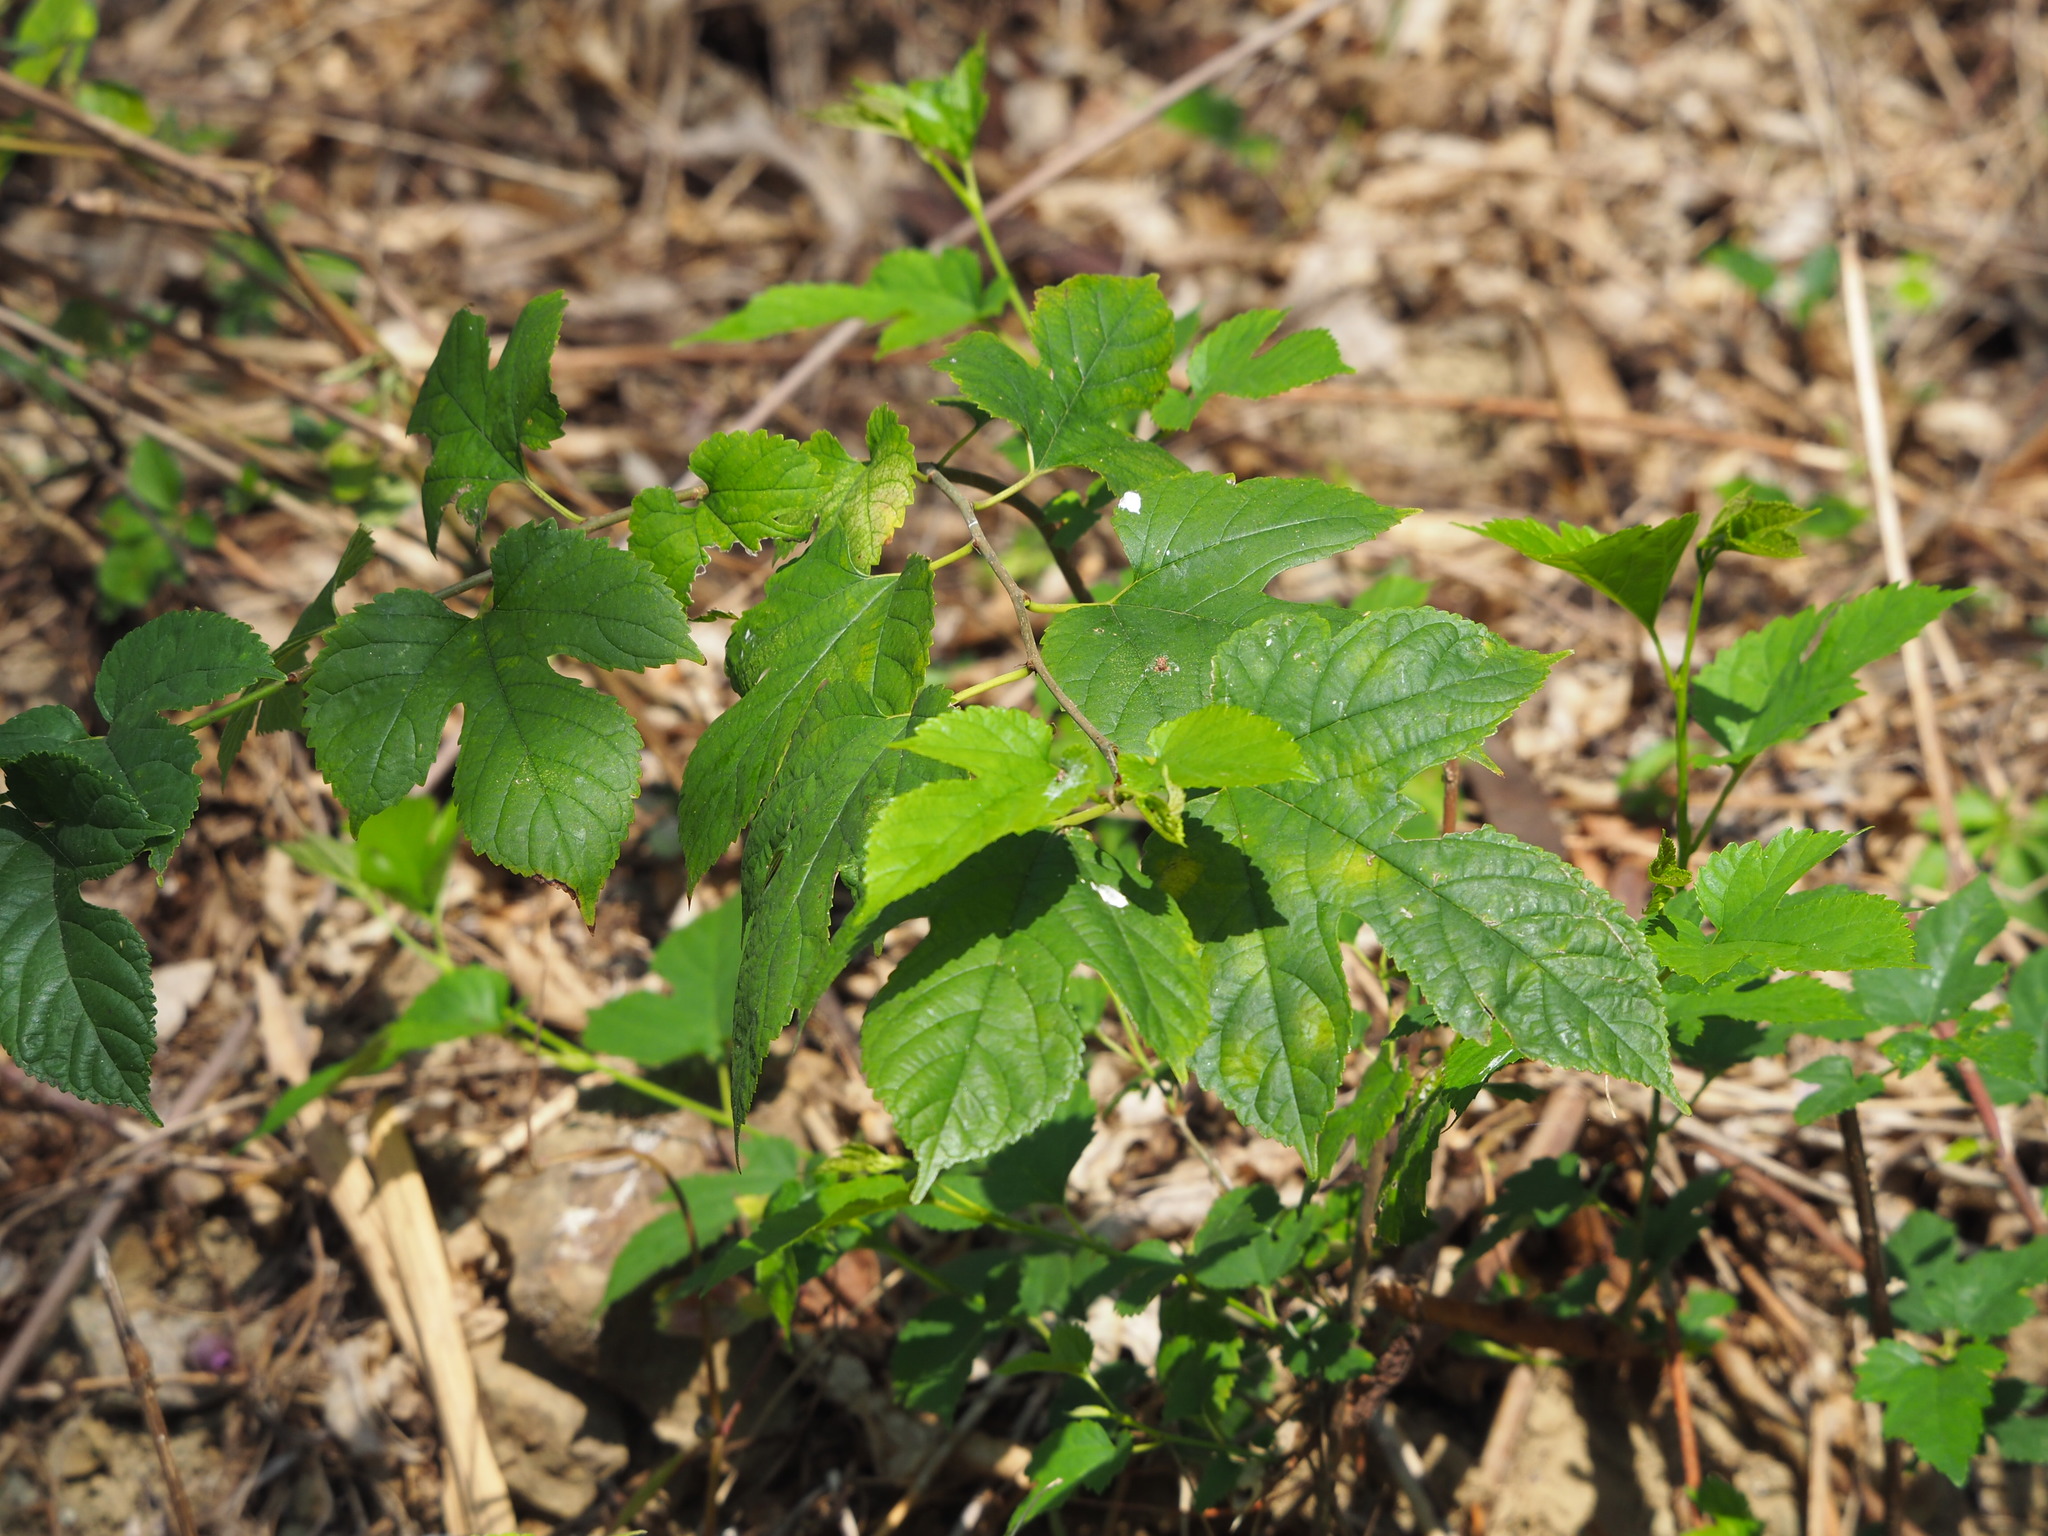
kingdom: Plantae
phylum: Tracheophyta
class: Magnoliopsida
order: Rosales
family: Moraceae
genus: Morus
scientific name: Morus indica
